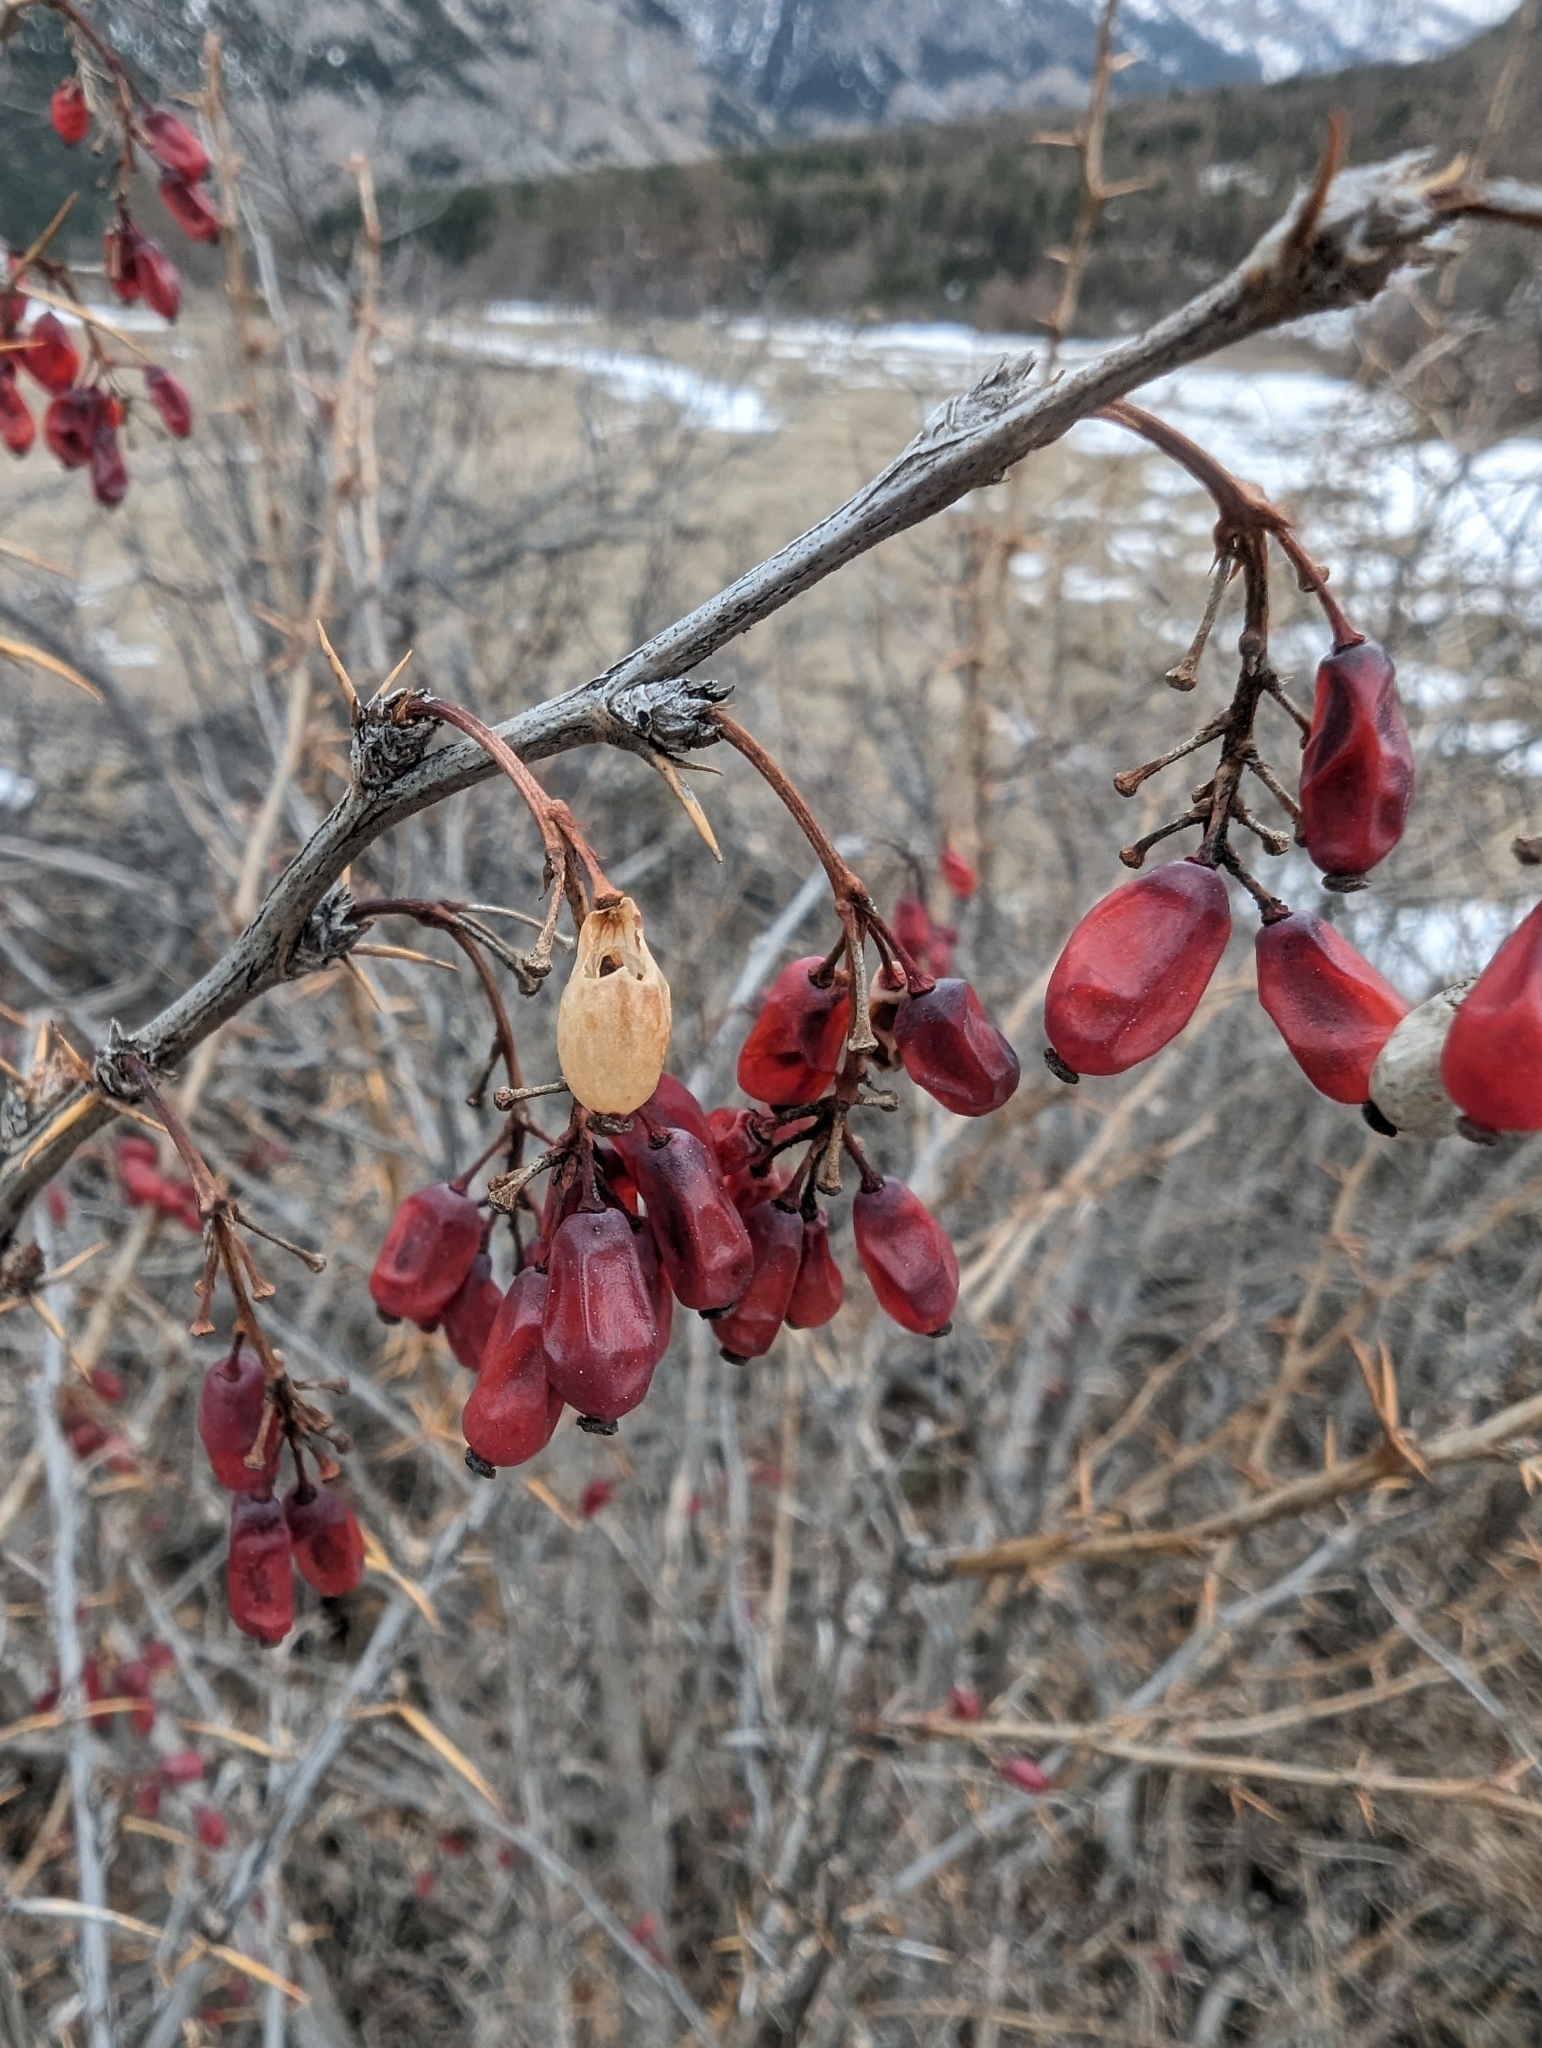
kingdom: Plantae
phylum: Tracheophyta
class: Magnoliopsida
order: Ranunculales
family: Berberidaceae
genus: Berberis
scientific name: Berberis vulgaris
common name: Barberry
